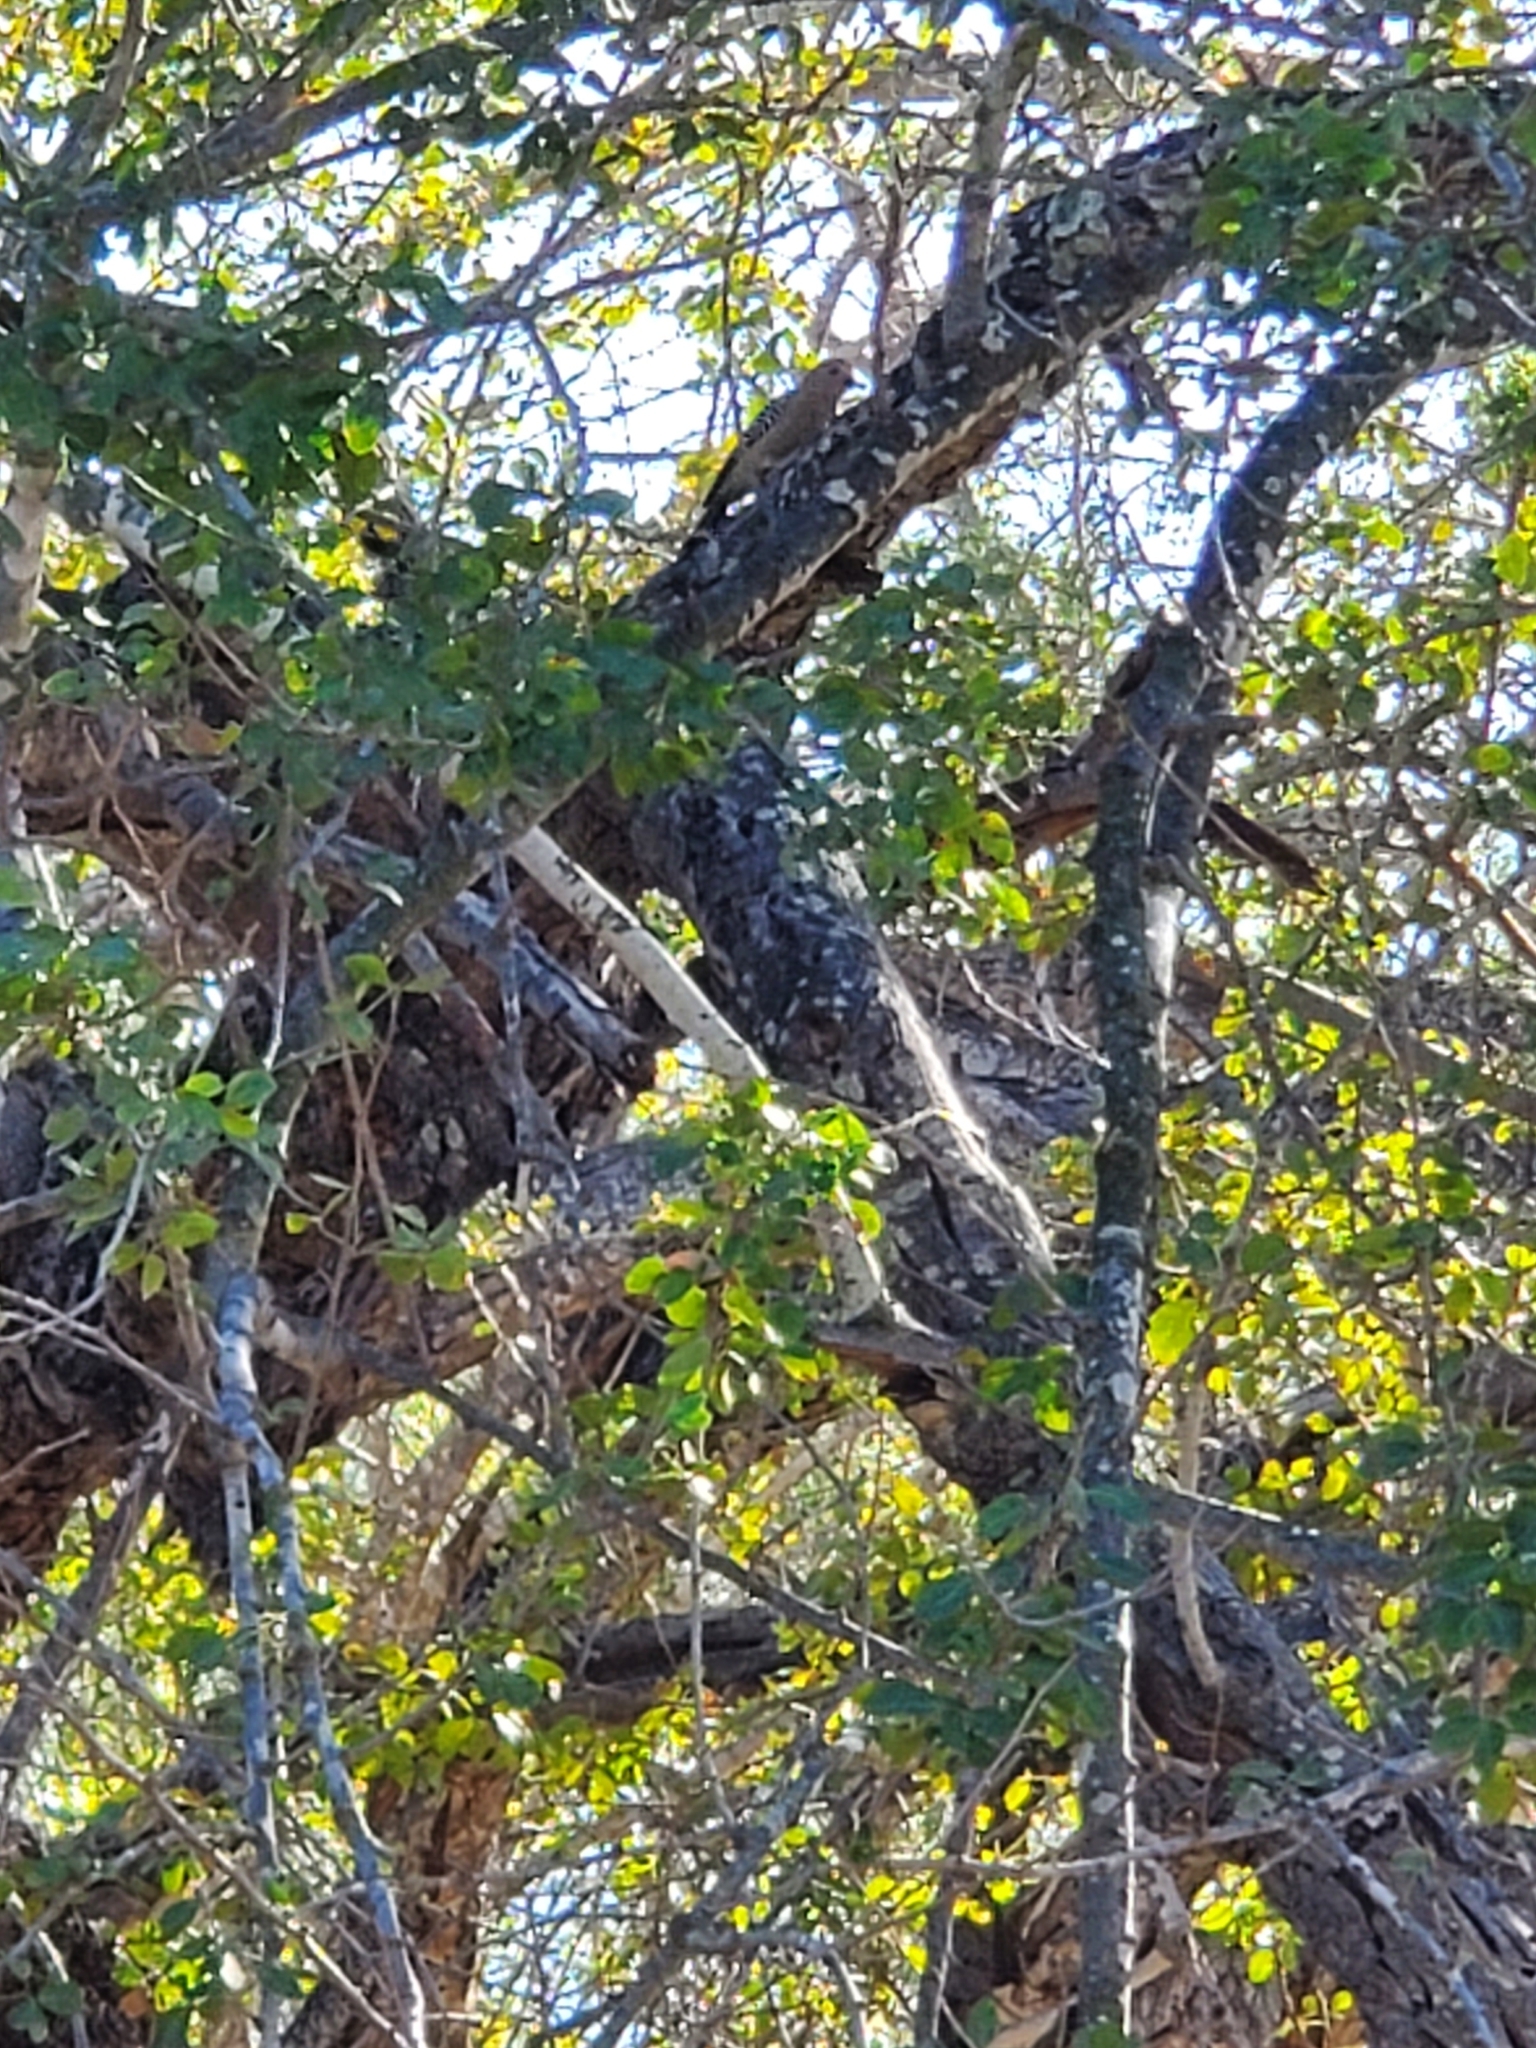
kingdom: Animalia
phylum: Chordata
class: Aves
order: Piciformes
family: Picidae
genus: Melanerpes
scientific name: Melanerpes uropygialis
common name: Gila woodpecker
